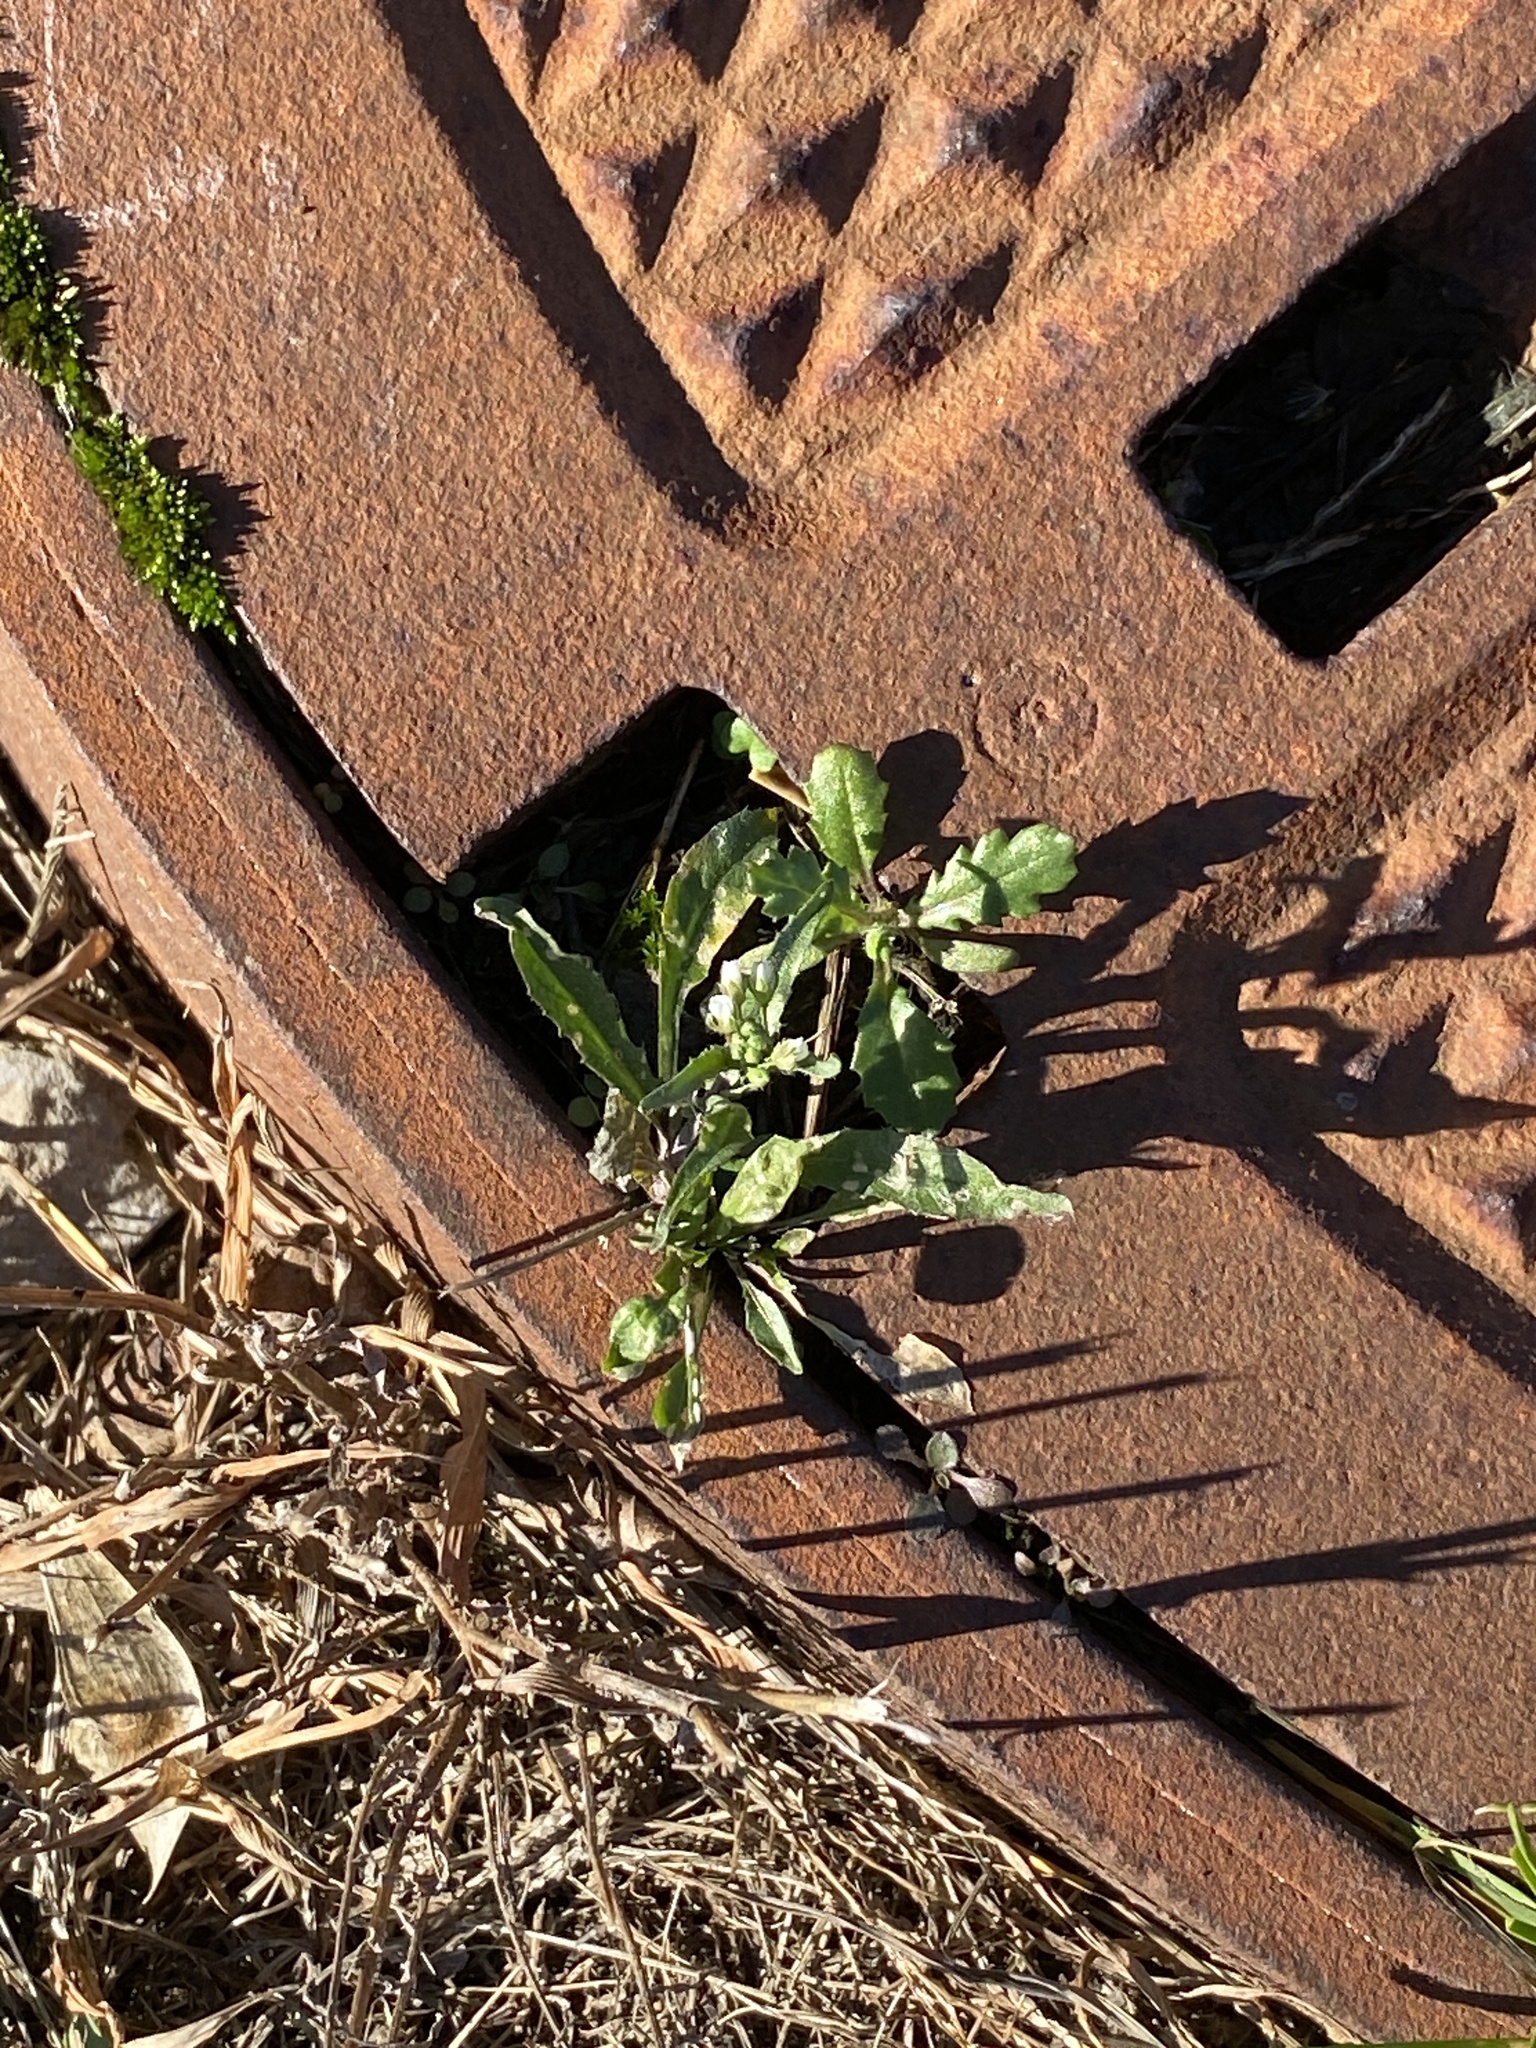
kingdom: Plantae
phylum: Tracheophyta
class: Magnoliopsida
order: Brassicales
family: Brassicaceae
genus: Capsella
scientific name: Capsella bursa-pastoris
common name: Shepherd's purse
